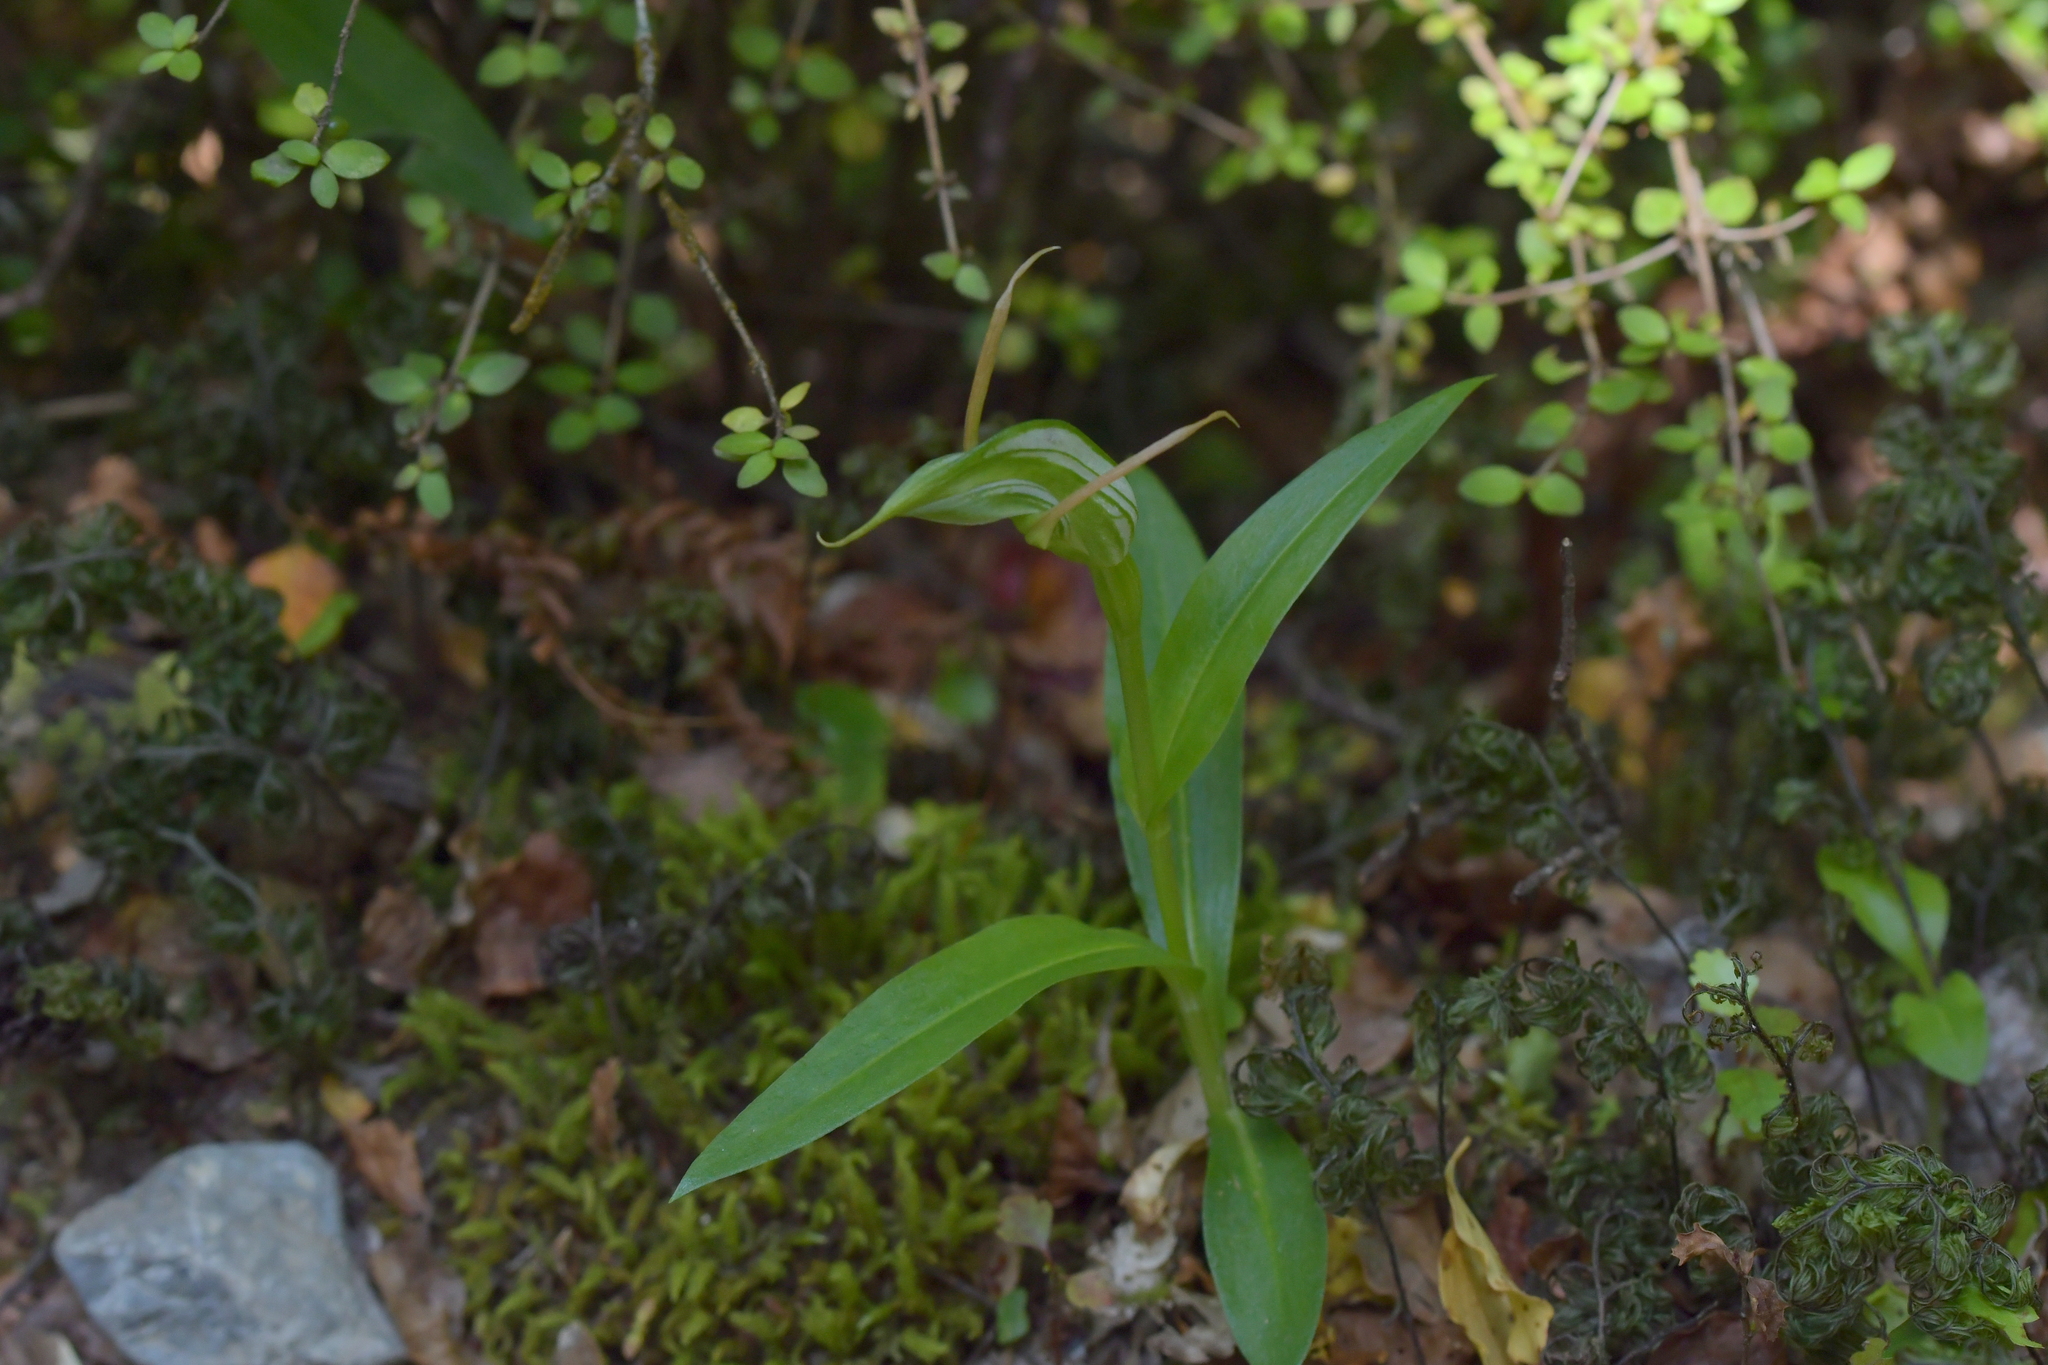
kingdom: Plantae
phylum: Tracheophyta
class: Liliopsida
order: Asparagales
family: Orchidaceae
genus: Pterostylis
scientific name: Pterostylis australis
